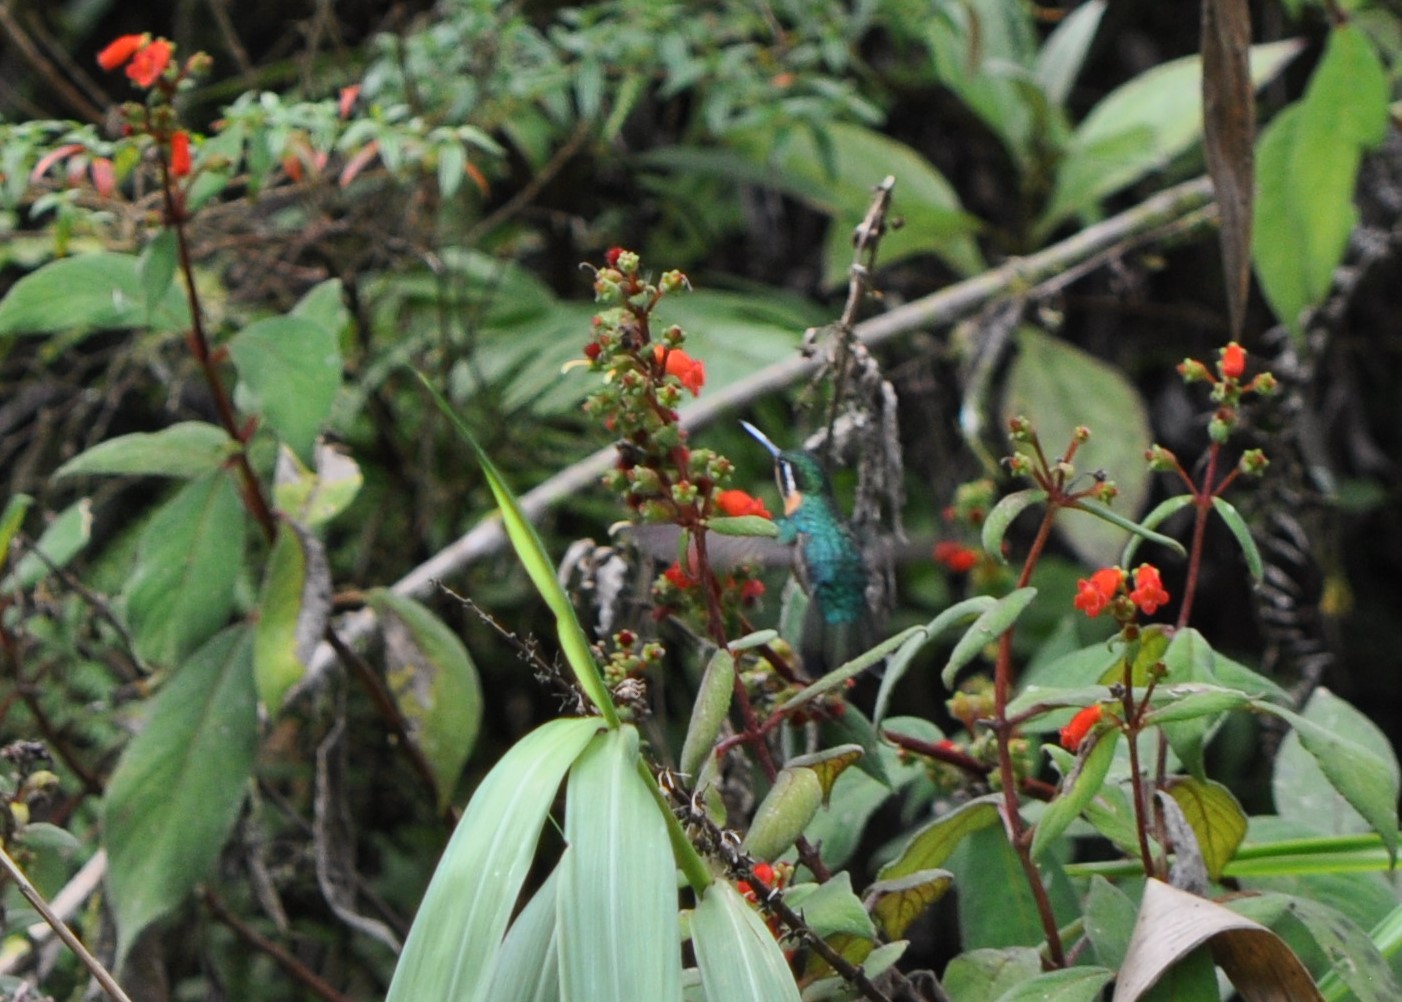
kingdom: Animalia
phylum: Chordata
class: Aves
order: Apodiformes
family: Trochilidae
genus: Lampornis
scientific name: Lampornis calolaemus
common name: Purple-throated mountain-gem
